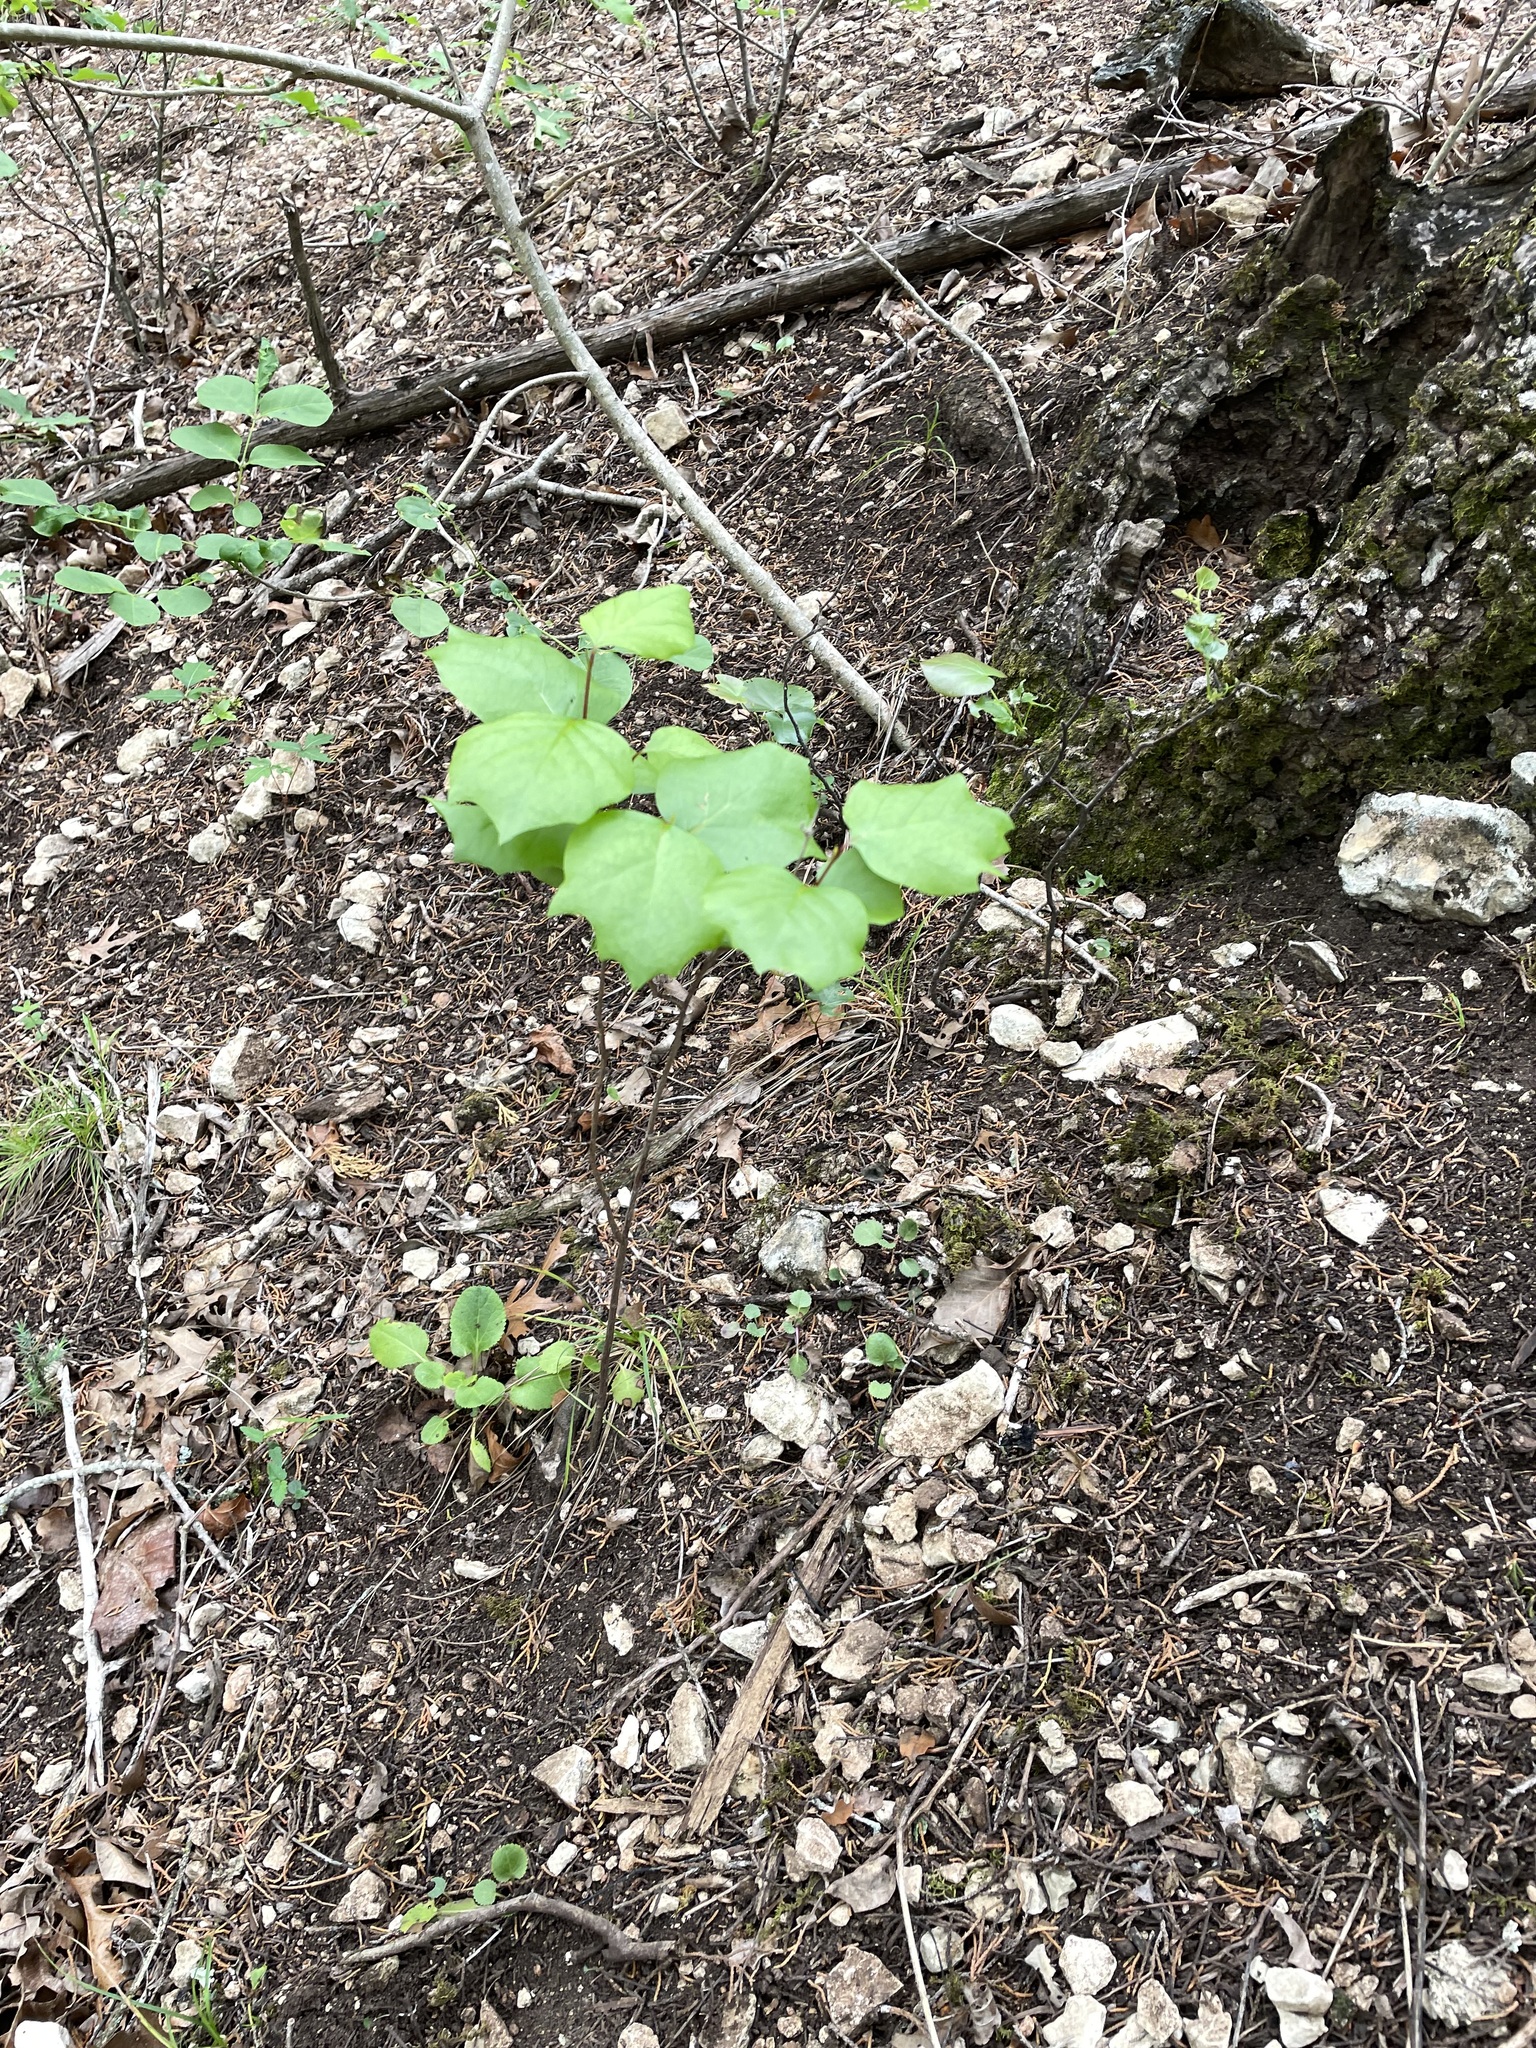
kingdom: Plantae
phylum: Tracheophyta
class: Magnoliopsida
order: Ericales
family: Styracaceae
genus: Styrax
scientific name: Styrax platanifolius
